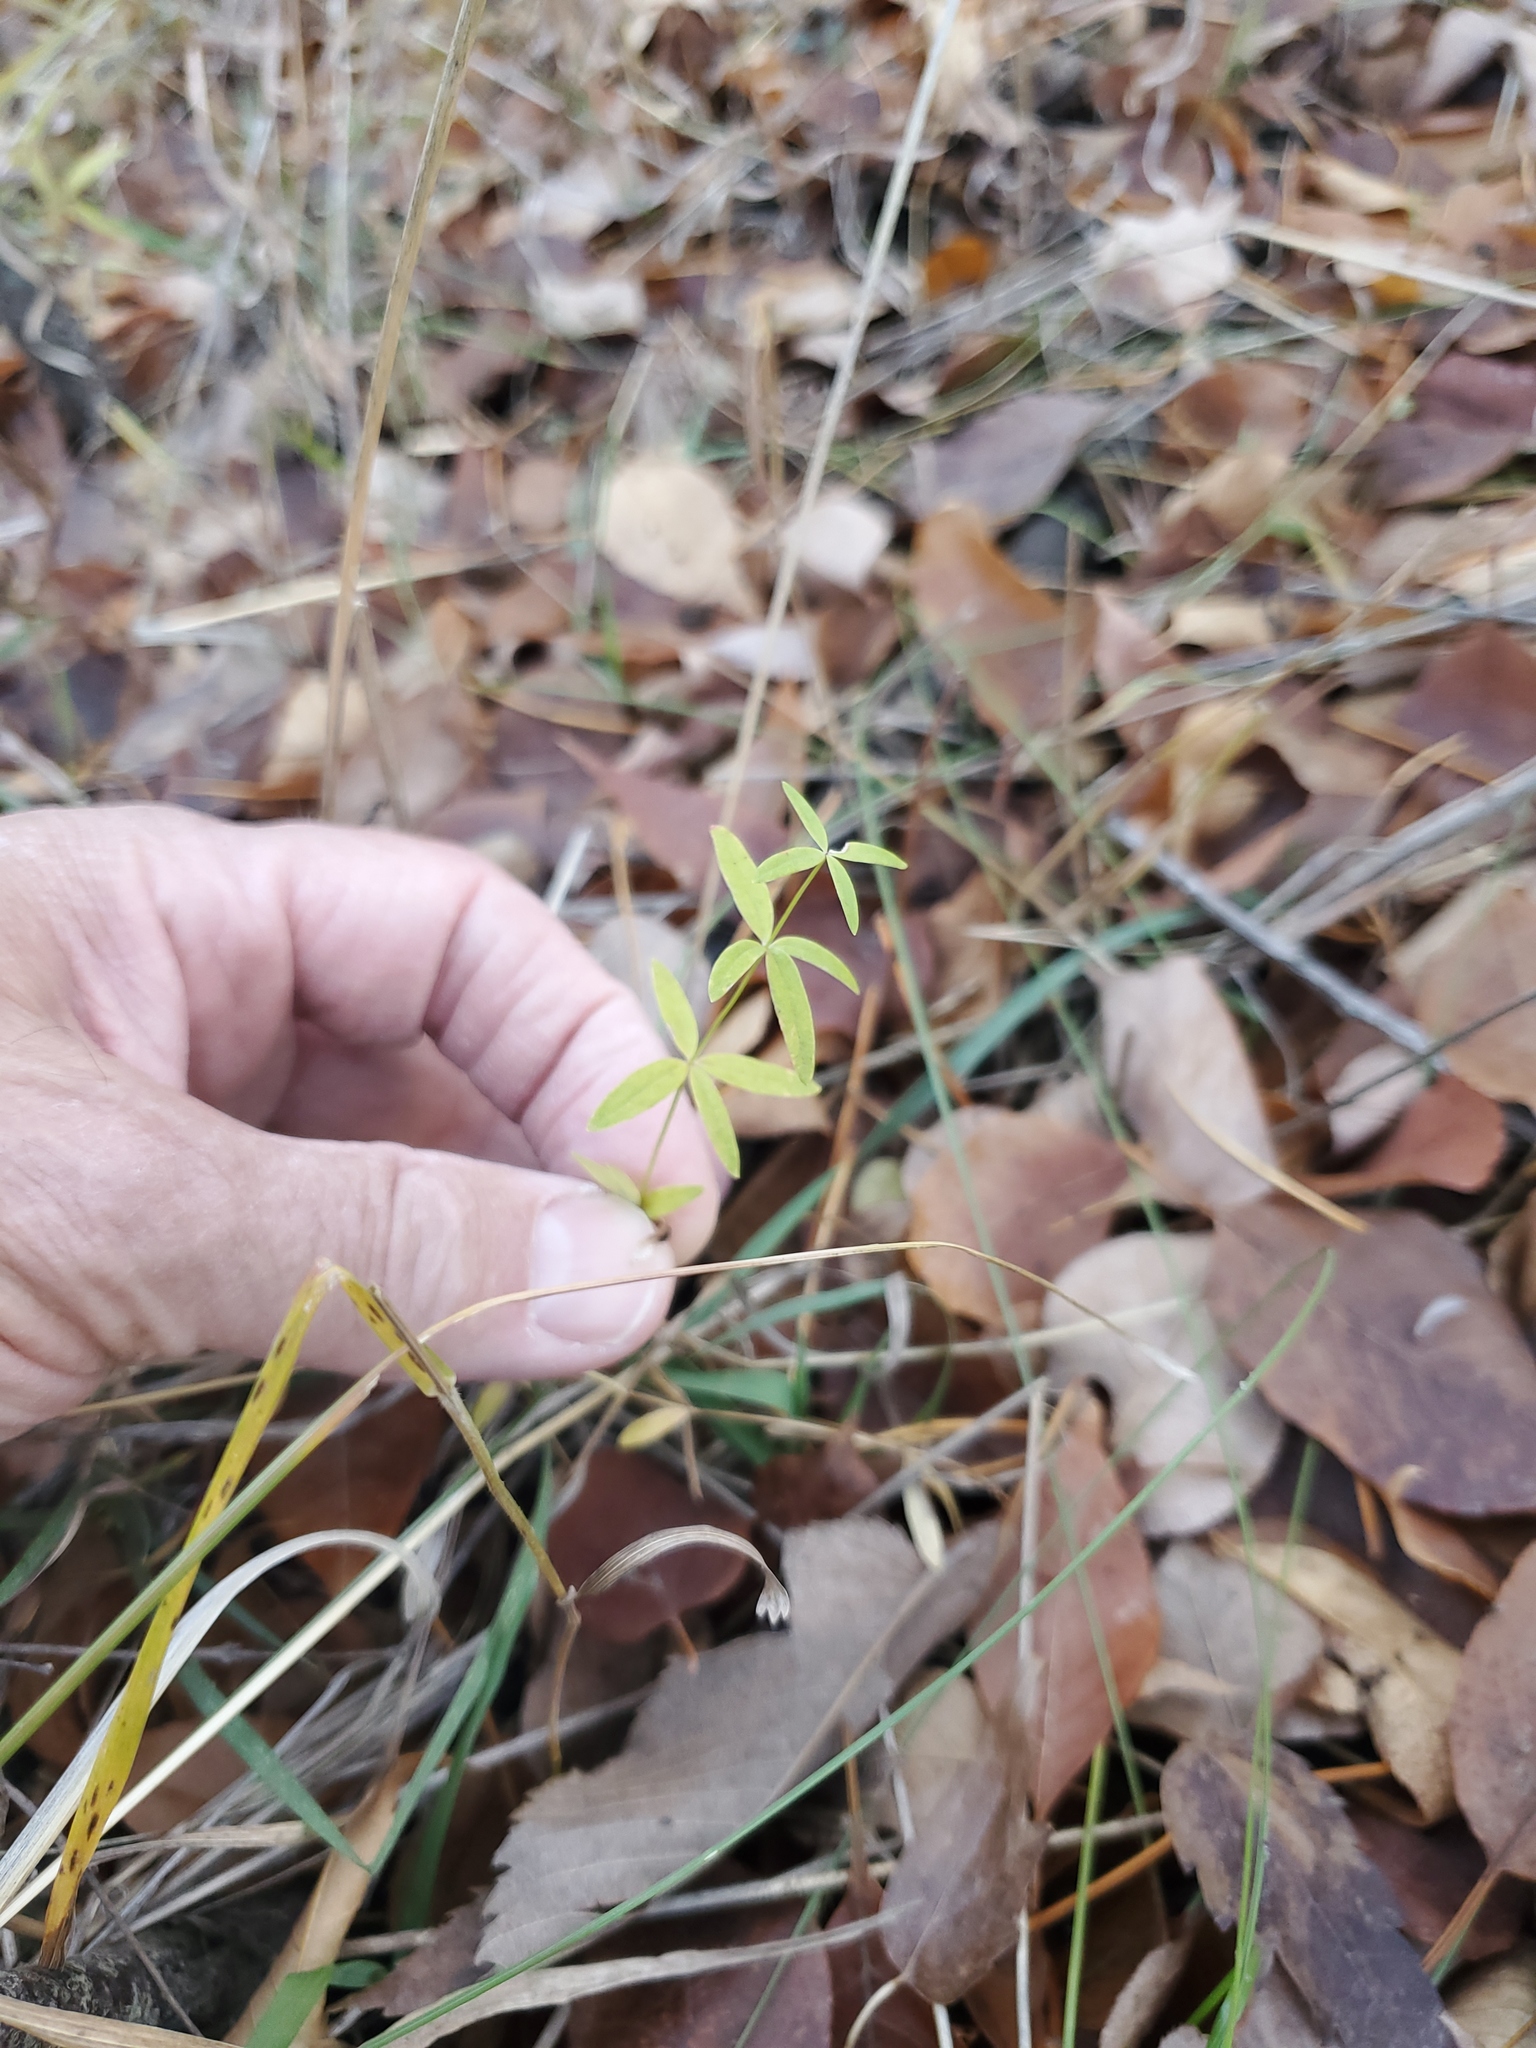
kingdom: Plantae
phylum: Tracheophyta
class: Magnoliopsida
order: Gentianales
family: Rubiaceae
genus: Galium
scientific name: Galium boreale
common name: Northern bedstraw
